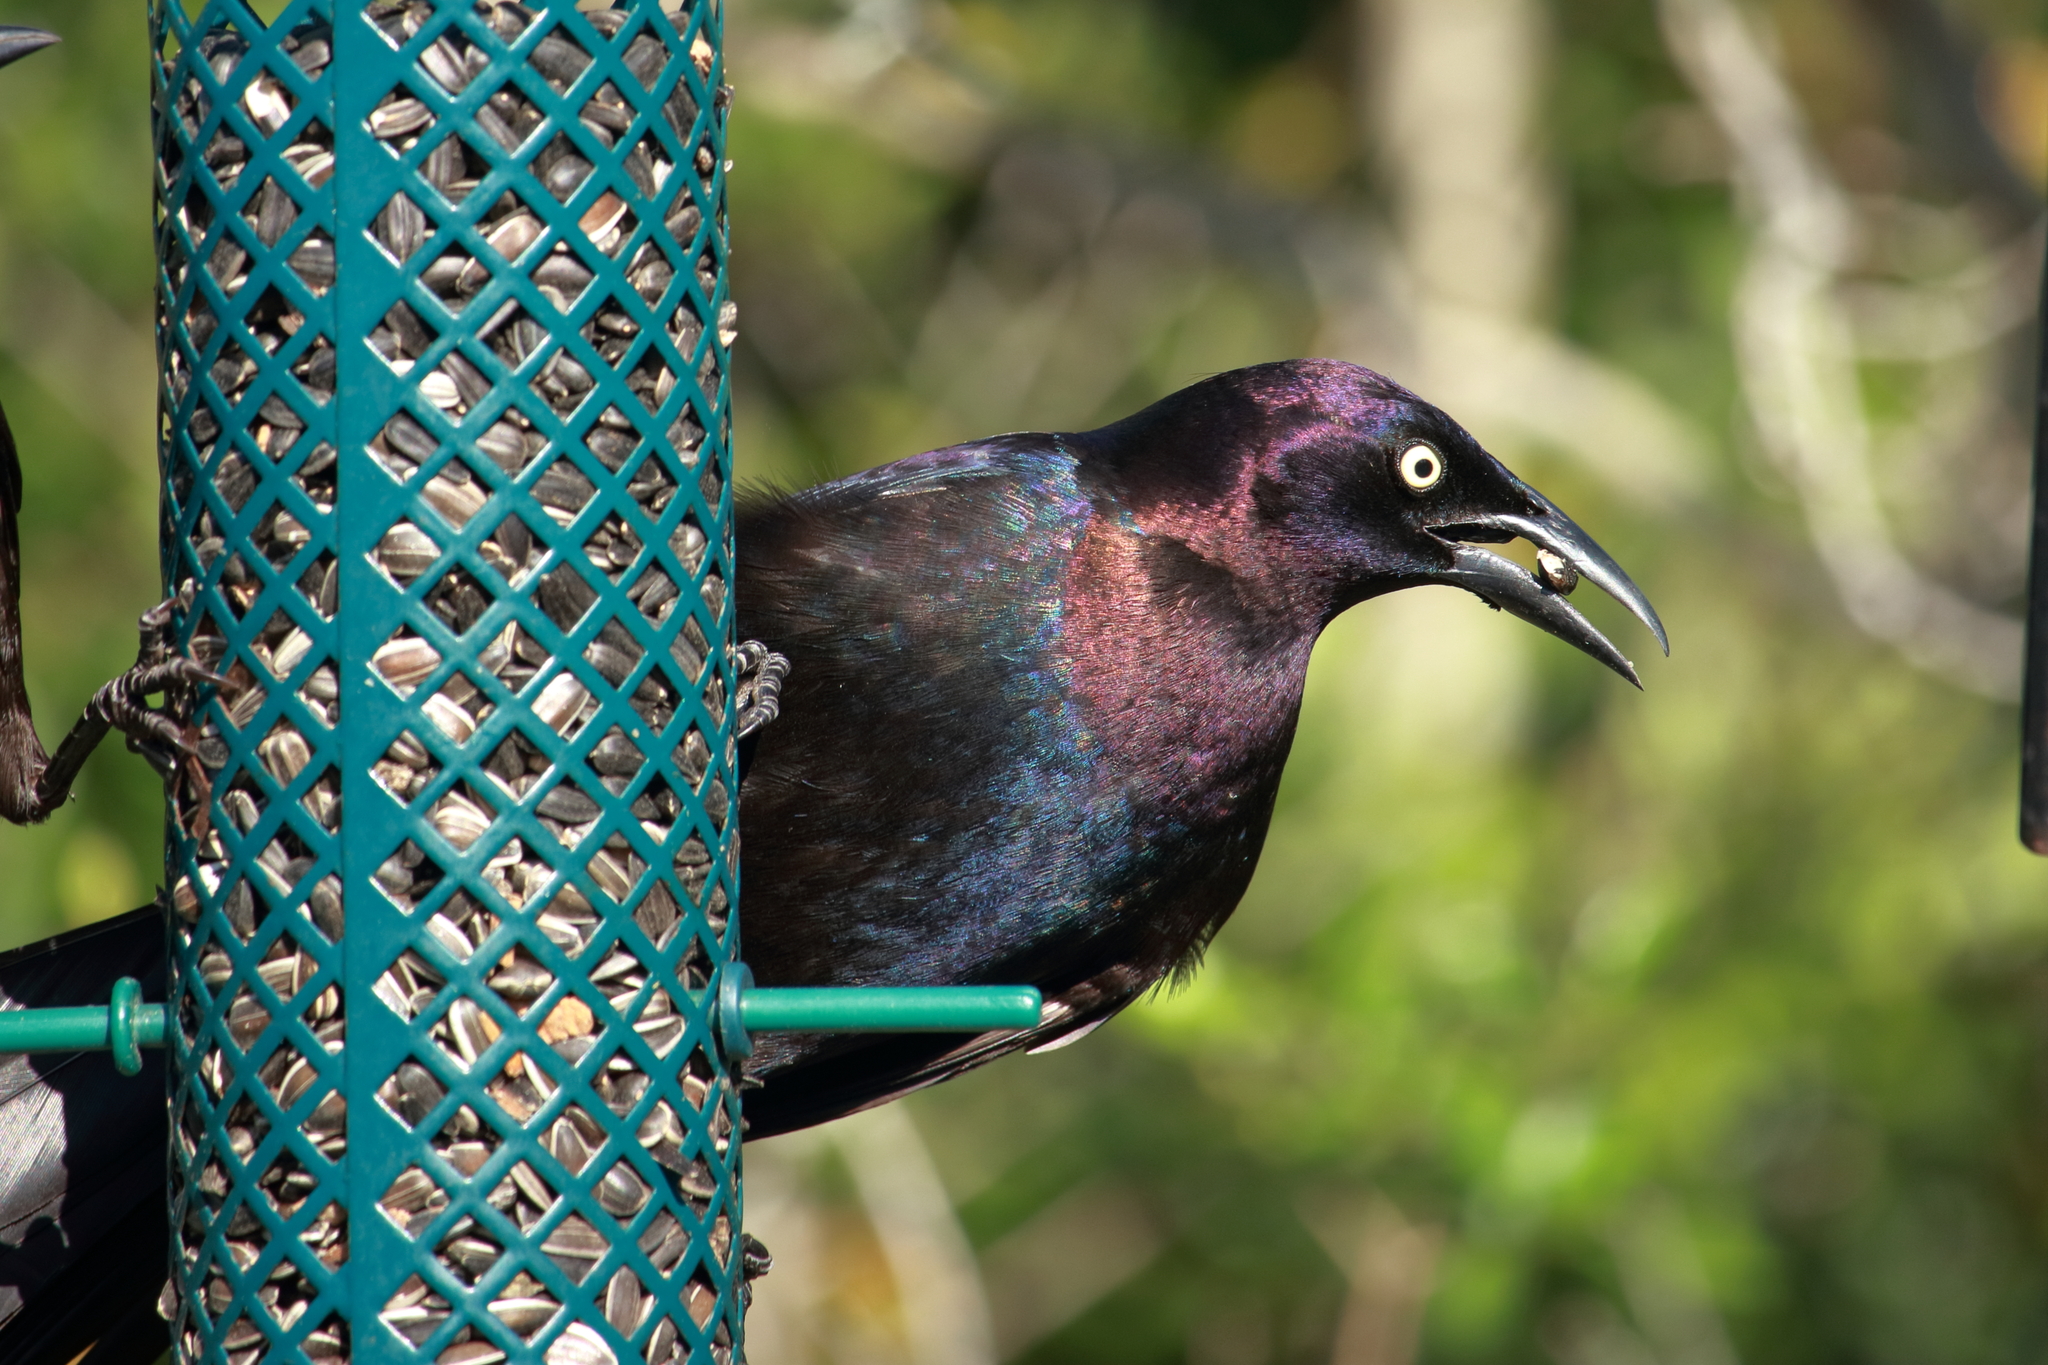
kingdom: Animalia
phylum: Chordata
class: Aves
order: Passeriformes
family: Icteridae
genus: Quiscalus
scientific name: Quiscalus quiscula
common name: Common grackle
